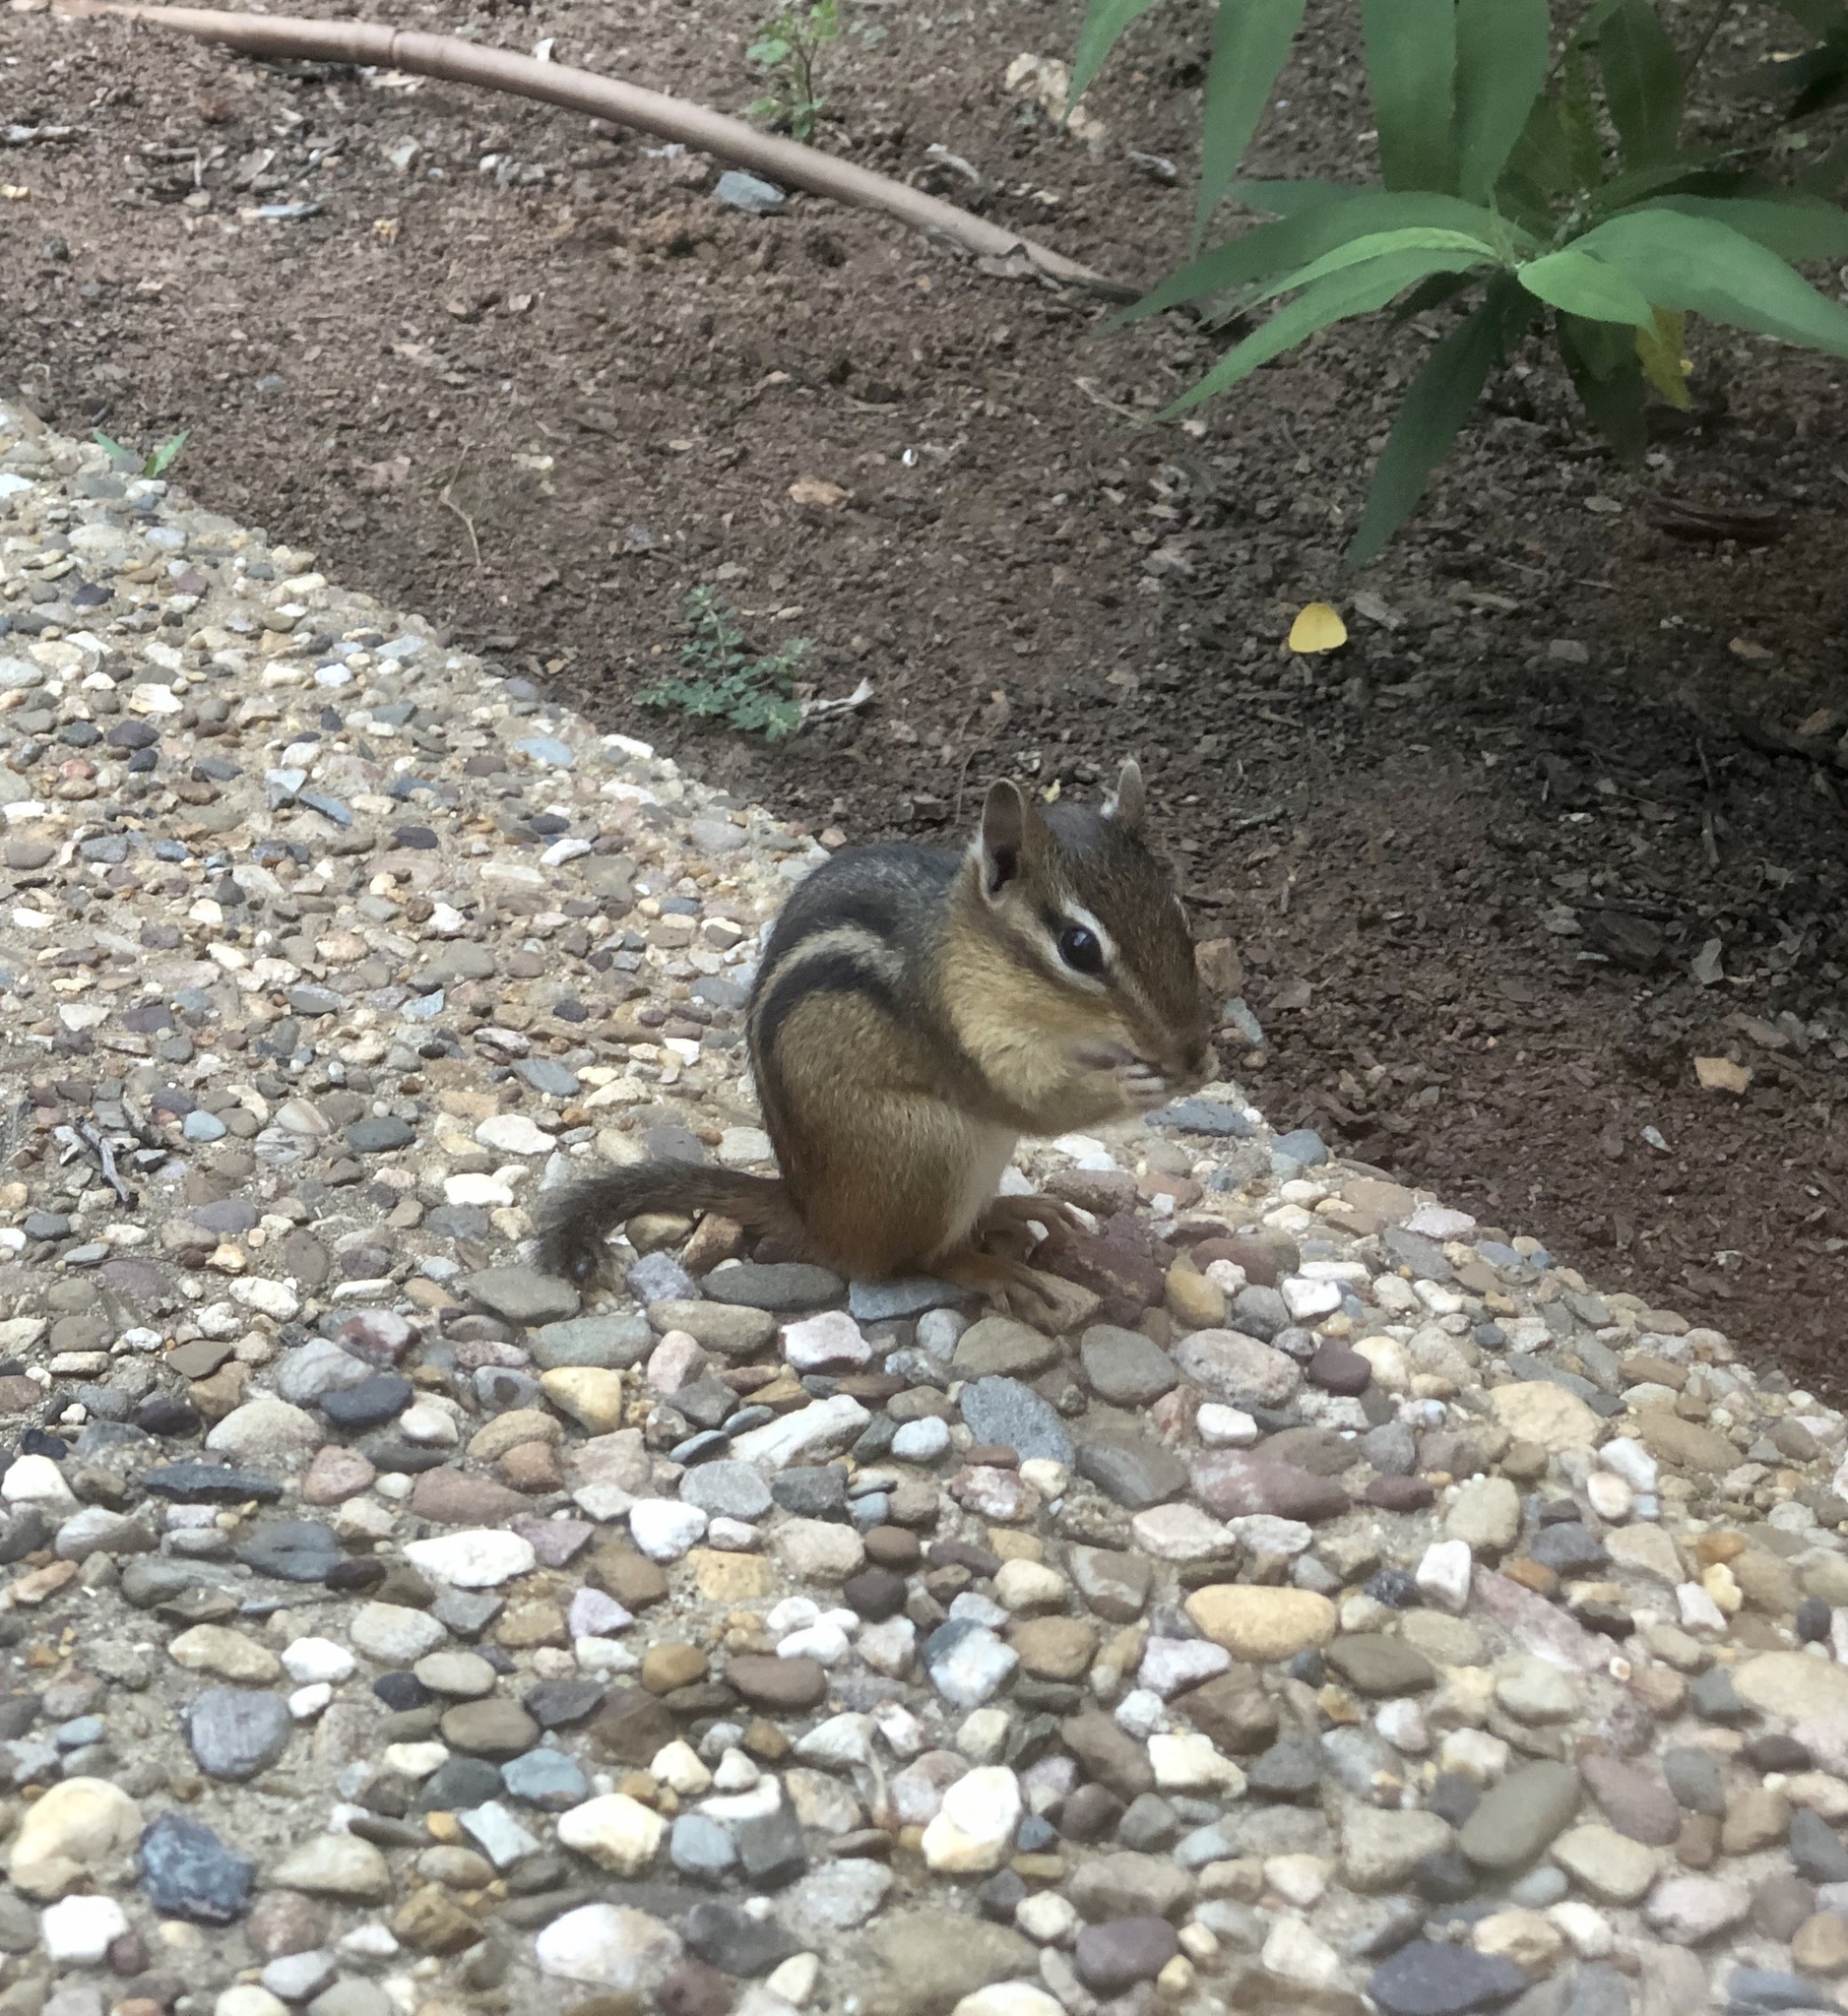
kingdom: Animalia
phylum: Chordata
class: Mammalia
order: Rodentia
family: Sciuridae
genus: Tamias
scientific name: Tamias striatus
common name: Eastern chipmunk
